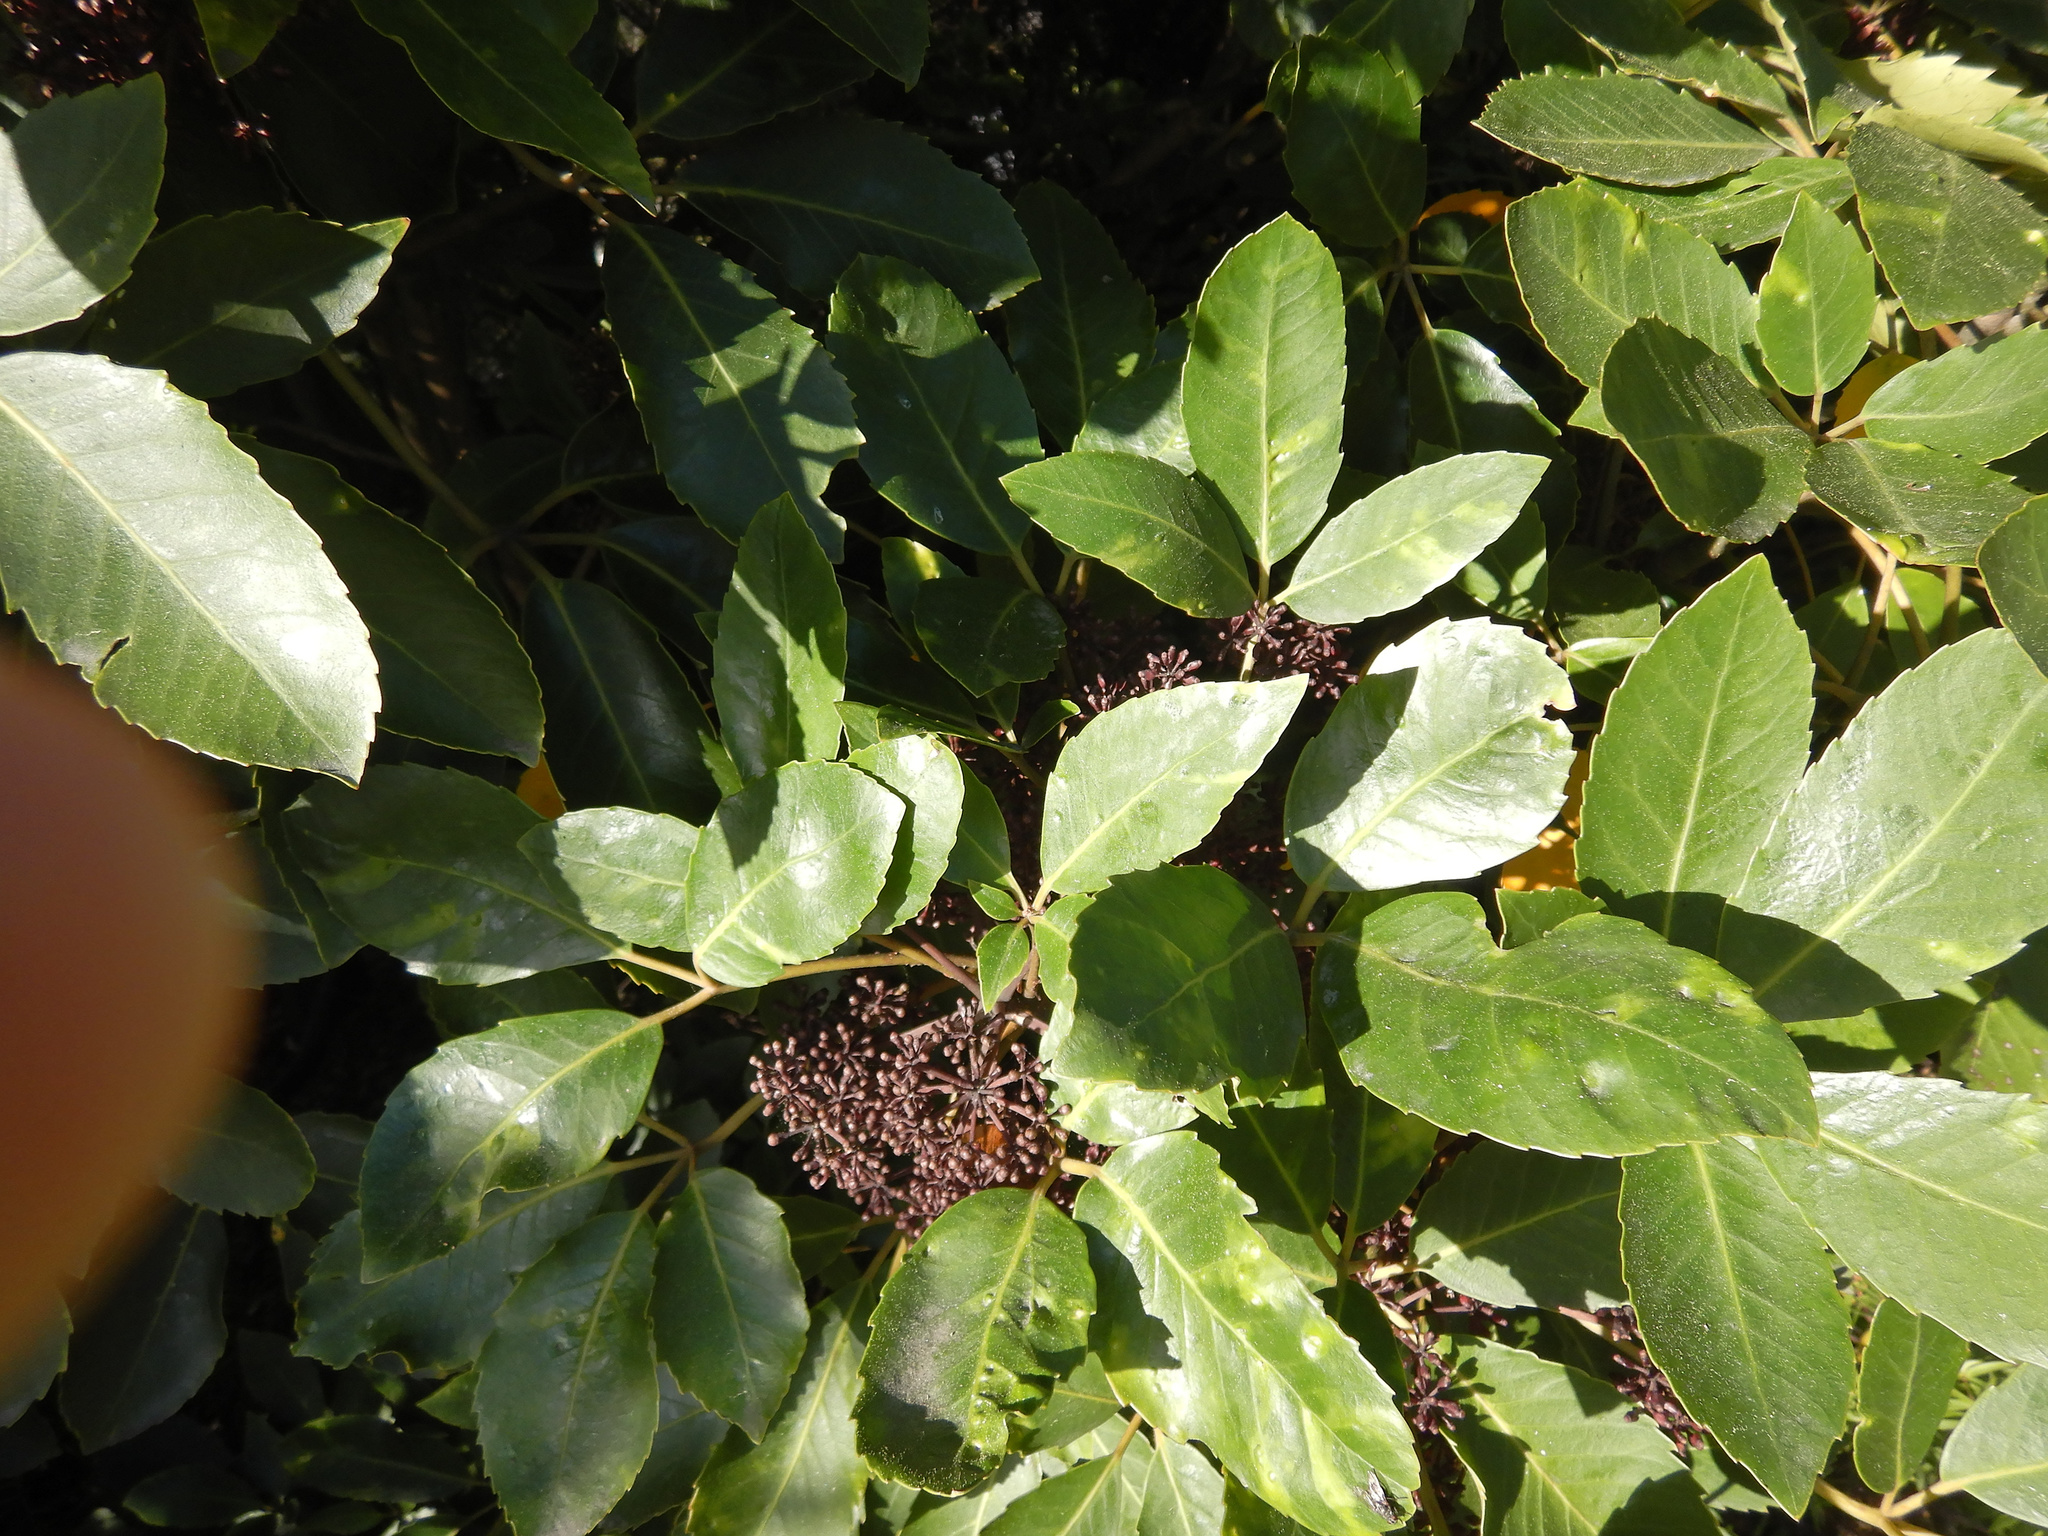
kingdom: Plantae
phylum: Tracheophyta
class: Magnoliopsida
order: Apiales
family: Araliaceae
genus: Neopanax
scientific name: Neopanax arboreus
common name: Five-fingers
